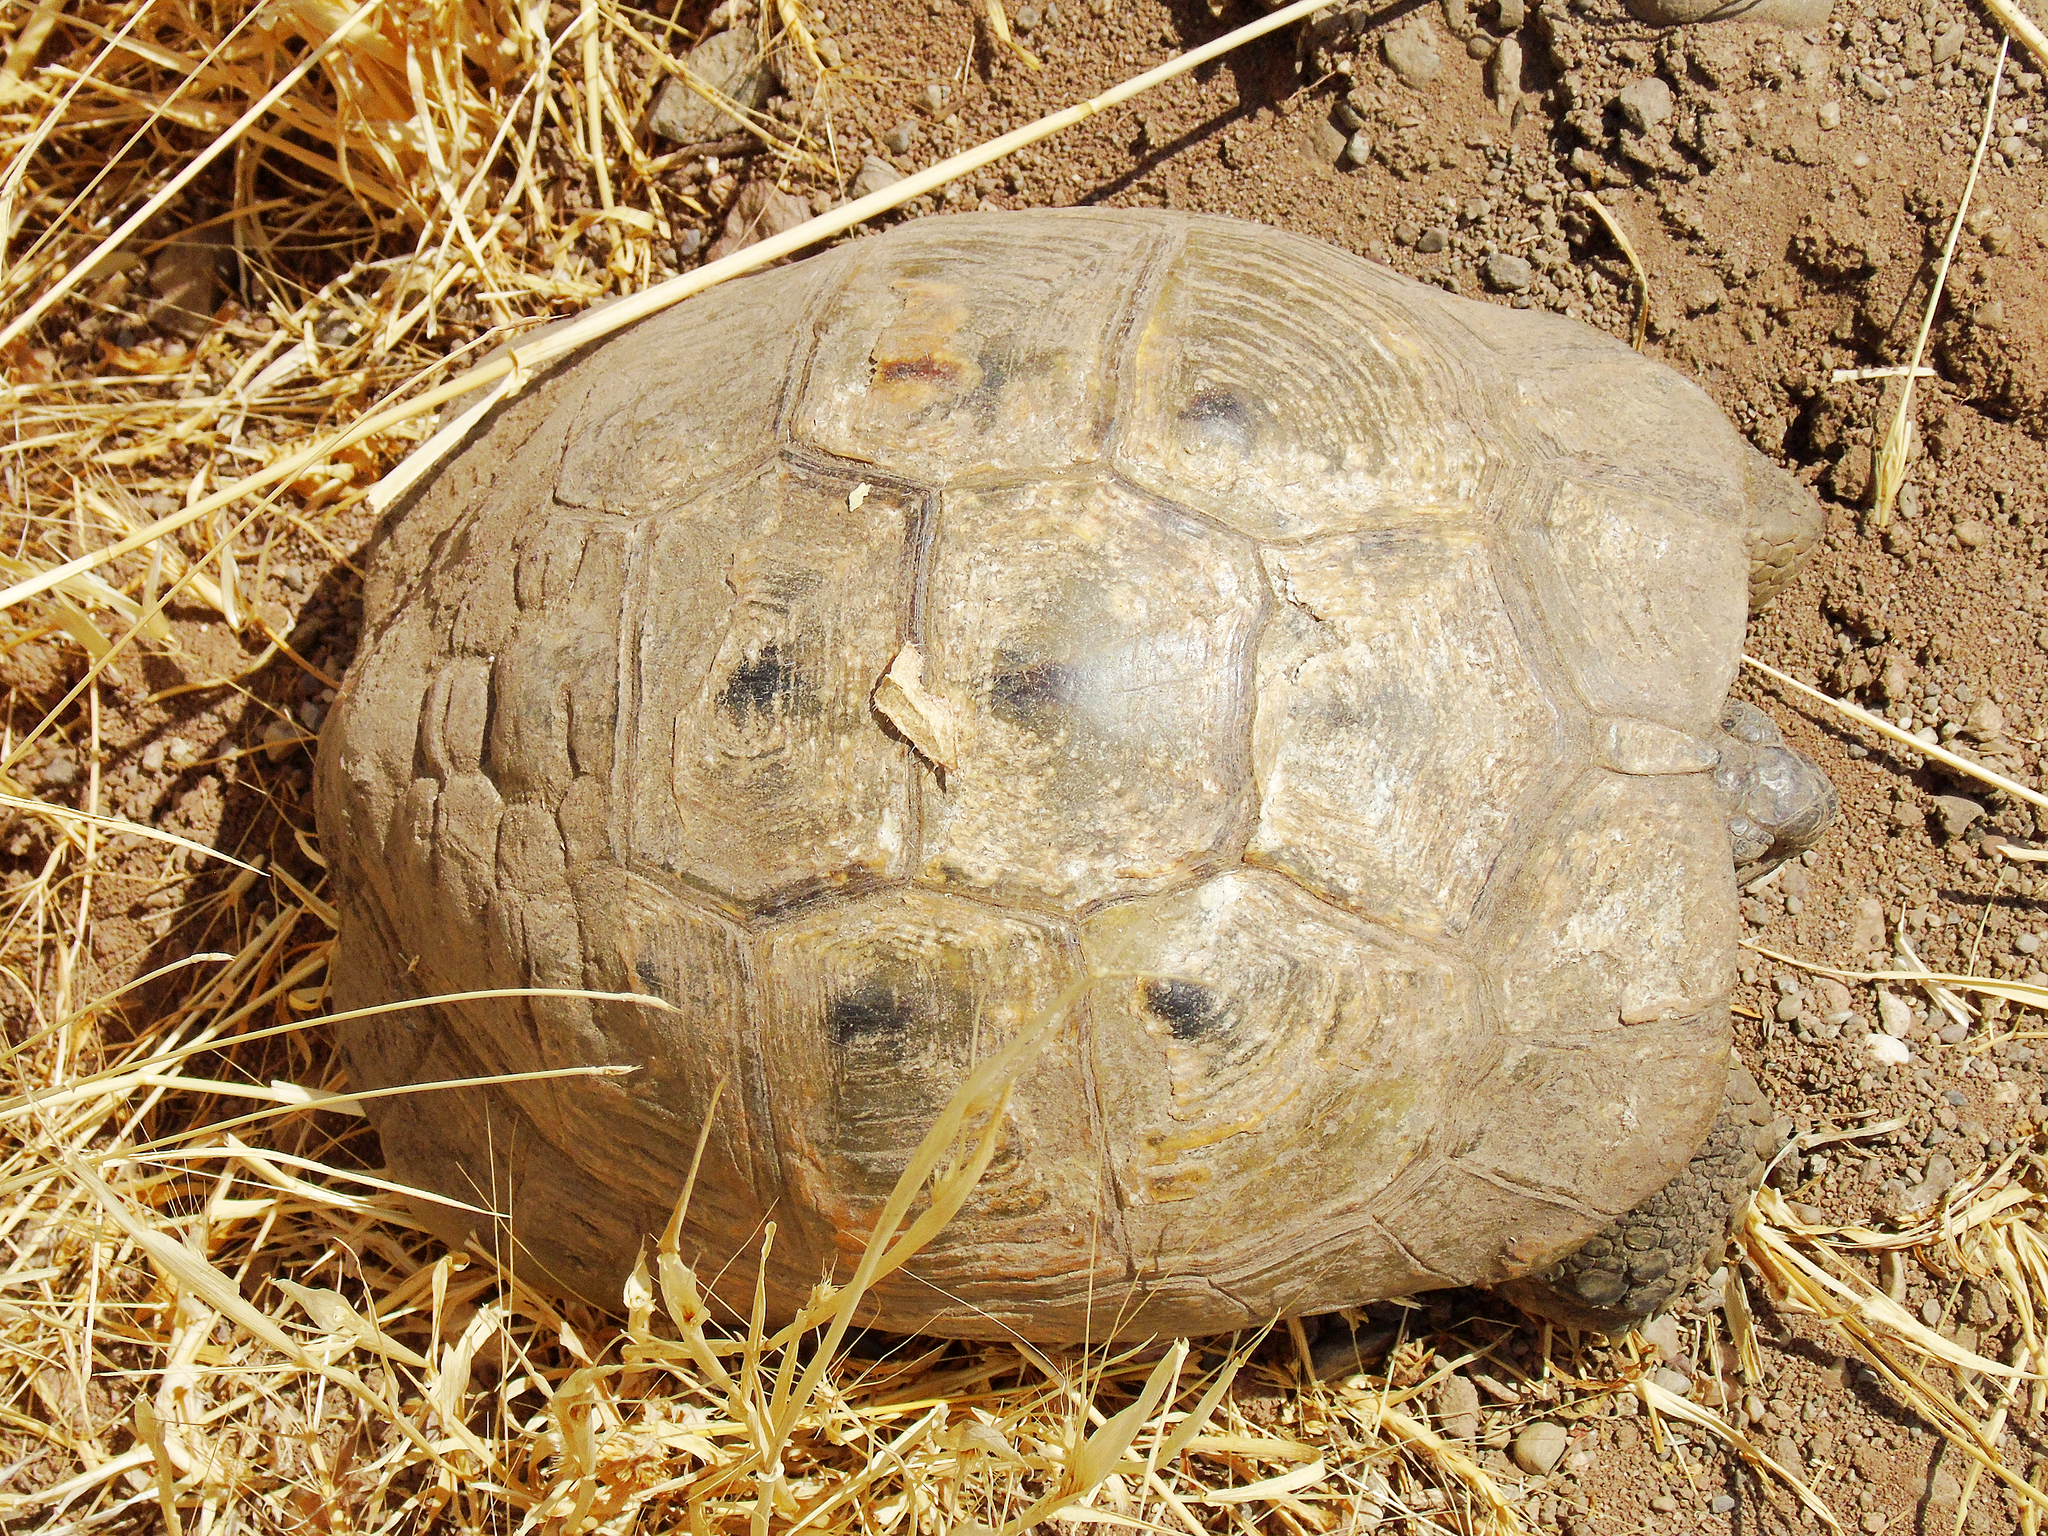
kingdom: Animalia
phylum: Chordata
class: Testudines
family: Testudinidae
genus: Testudo
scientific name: Testudo graeca
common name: Common tortoise
